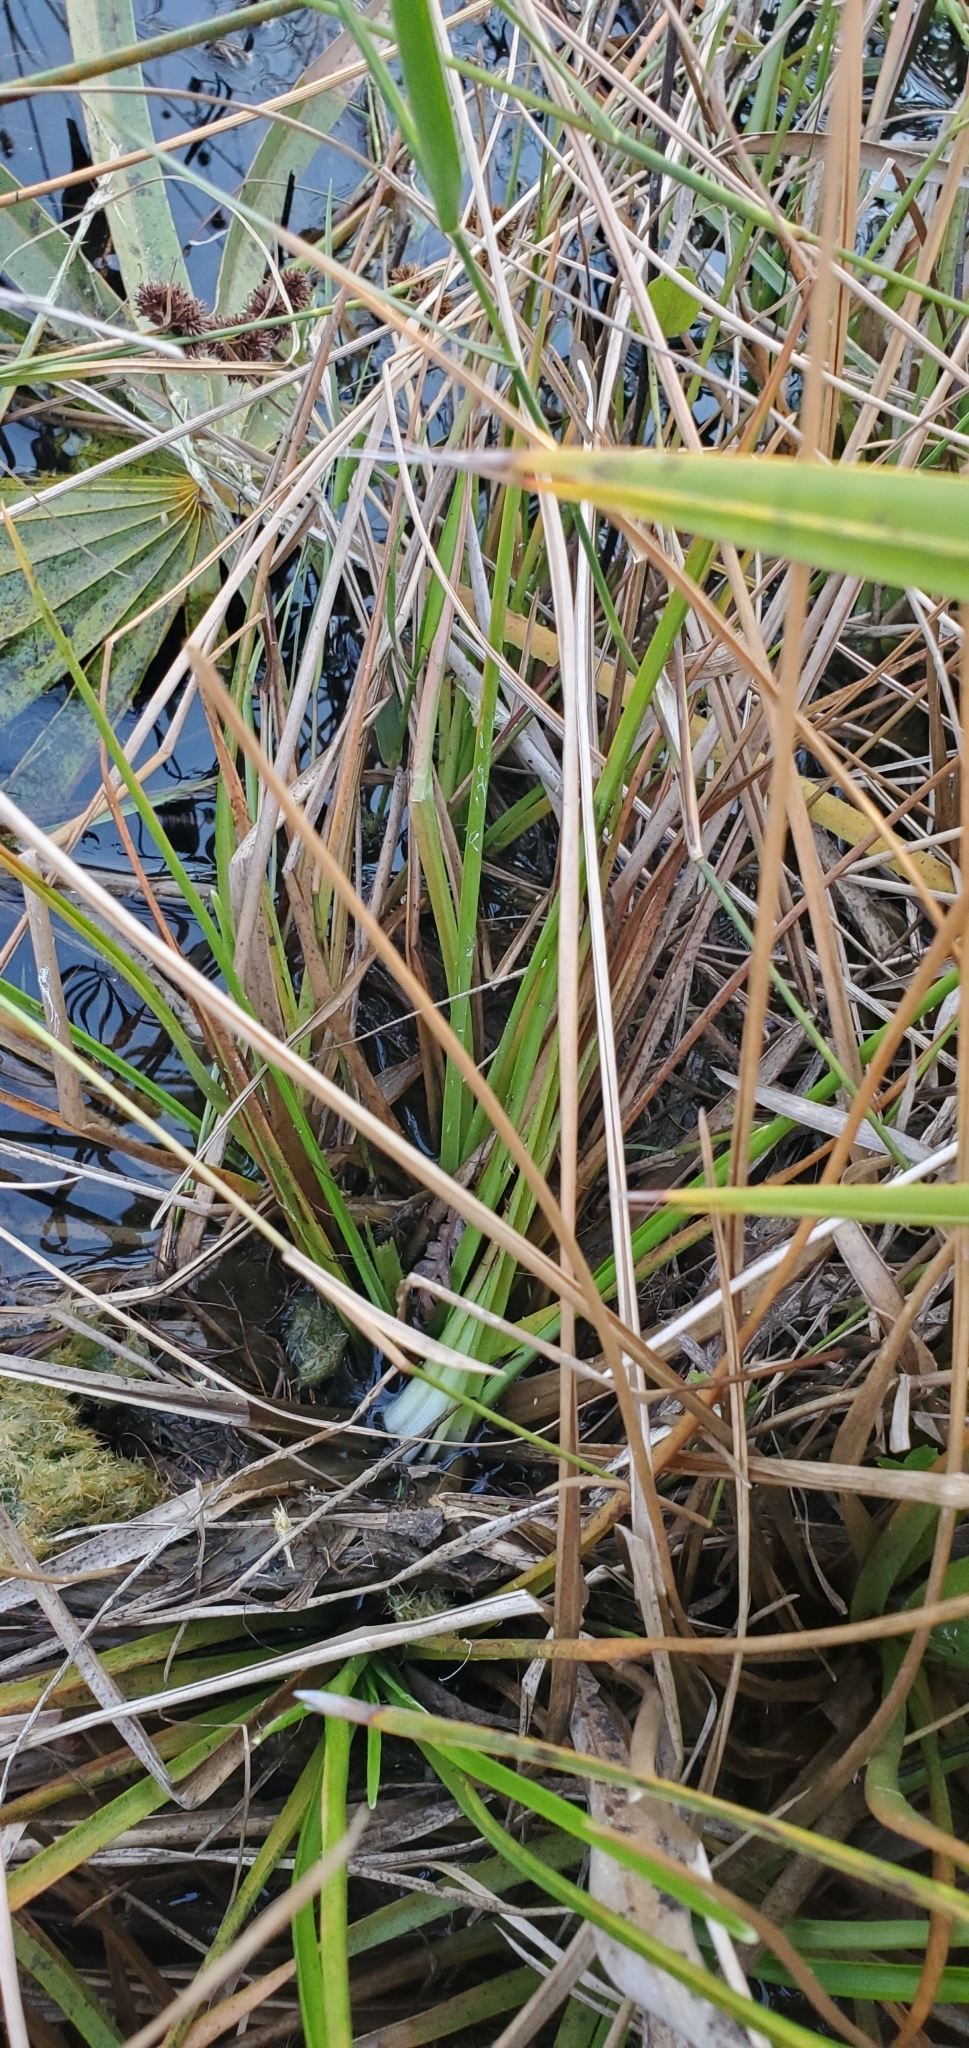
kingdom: Plantae
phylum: Tracheophyta
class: Liliopsida
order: Poales
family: Eriocaulaceae
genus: Eriocaulon
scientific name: Eriocaulon decangulare
